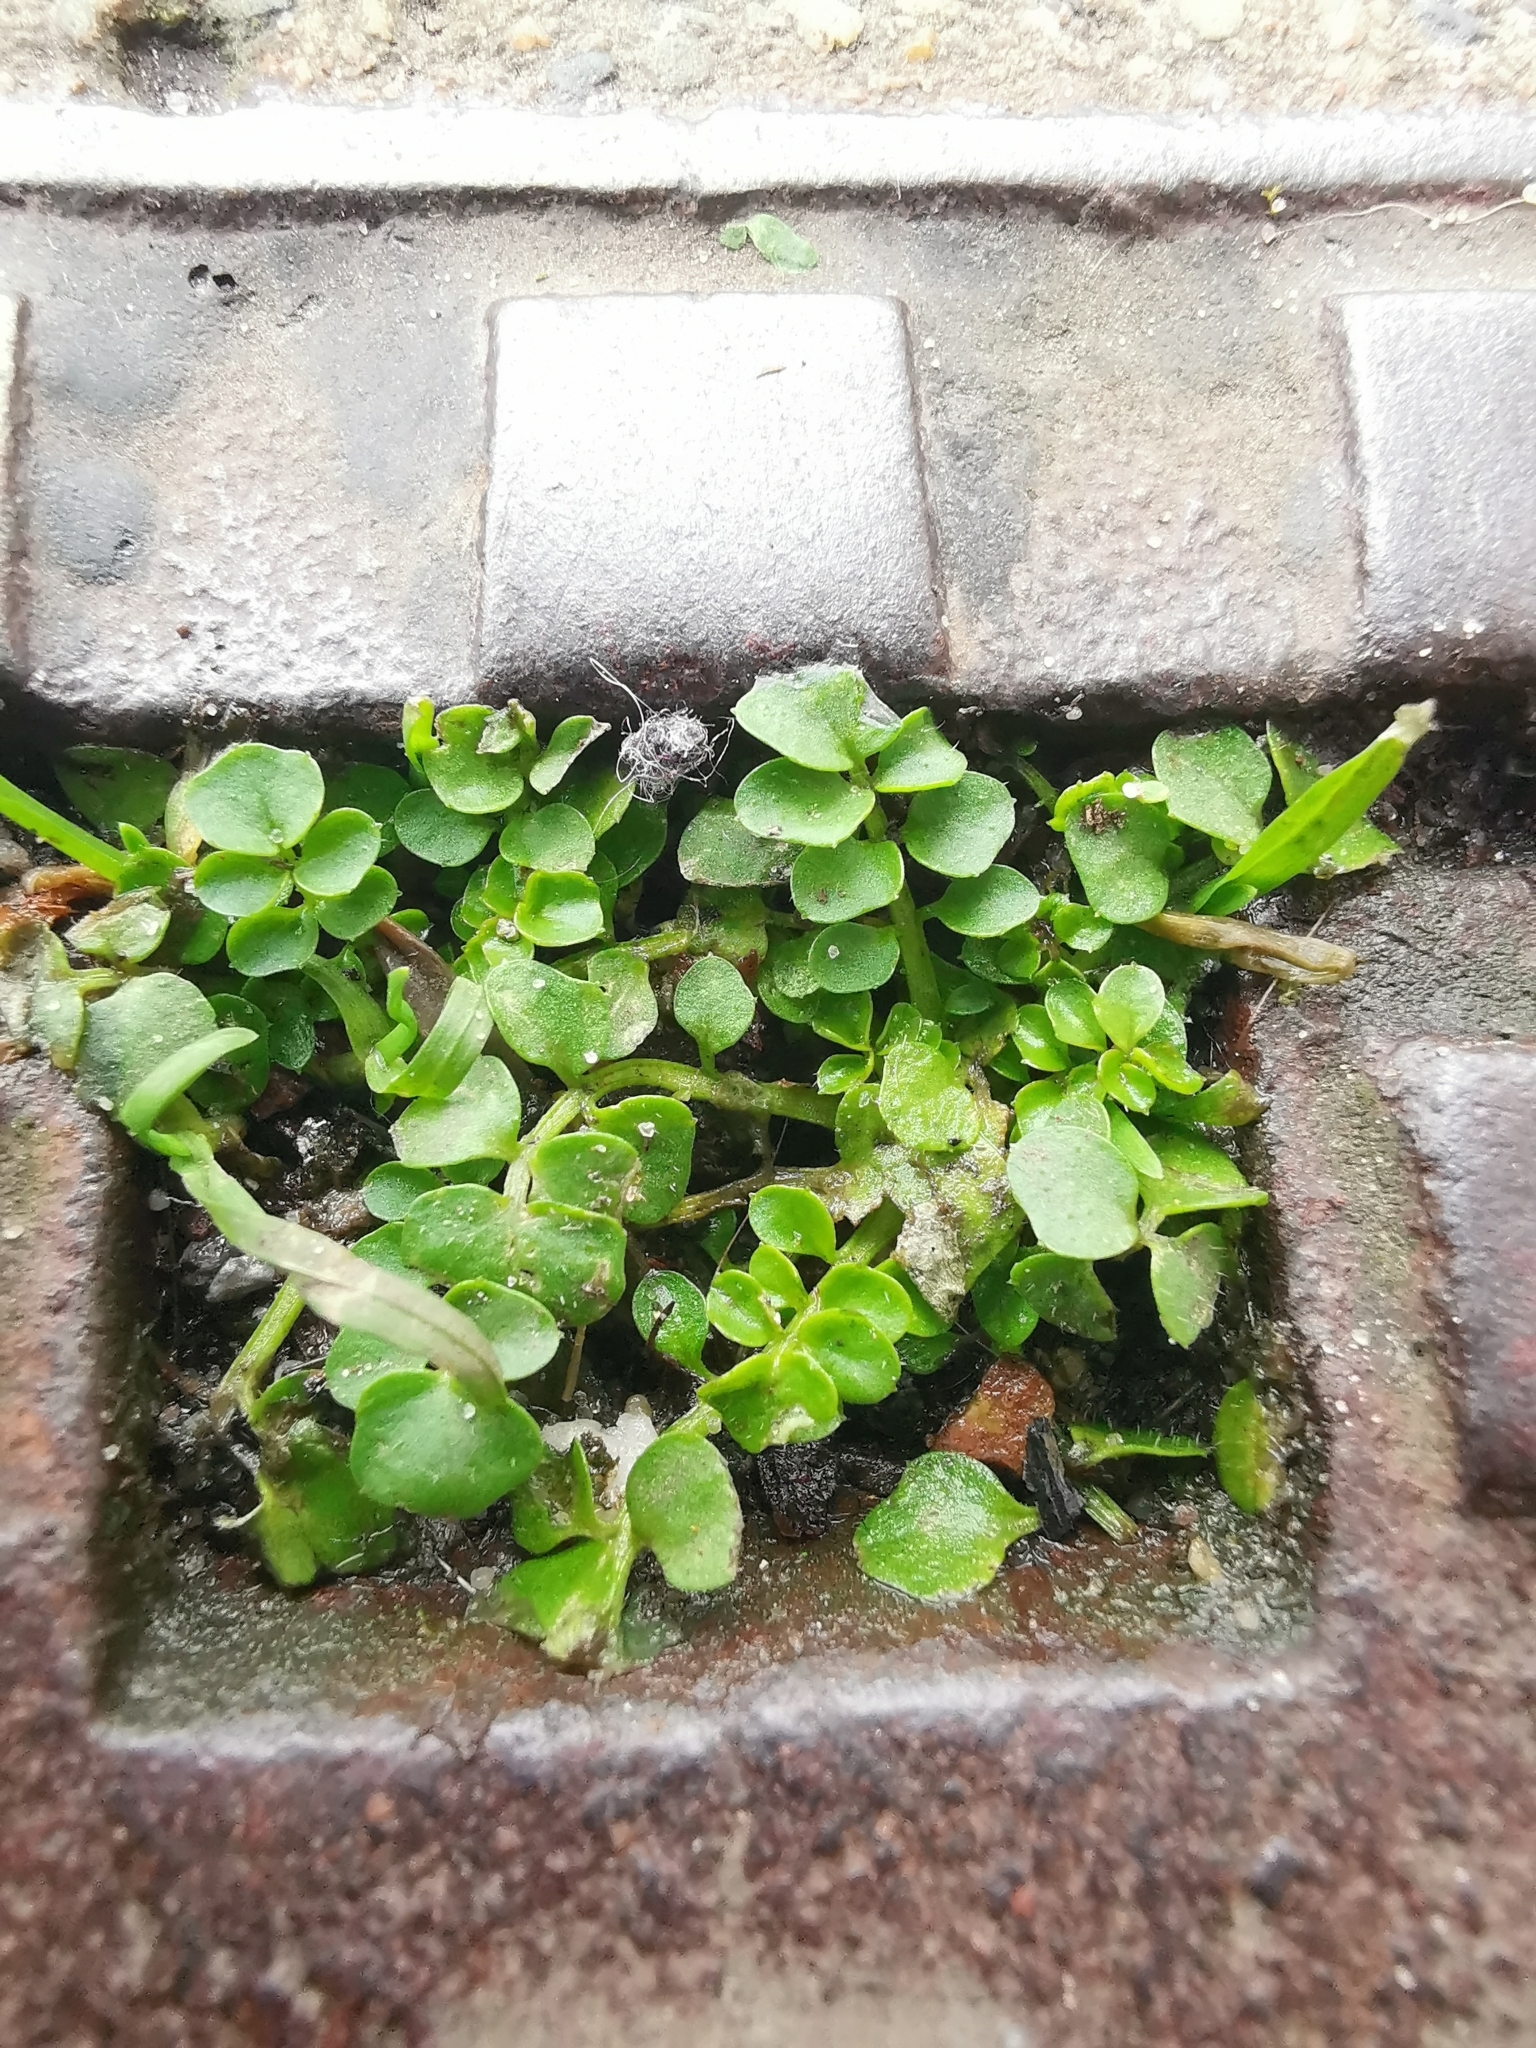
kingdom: Plantae
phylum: Tracheophyta
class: Magnoliopsida
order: Brassicales
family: Brassicaceae
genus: Cardamine
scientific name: Cardamine hirsuta
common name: Hairy bittercress
